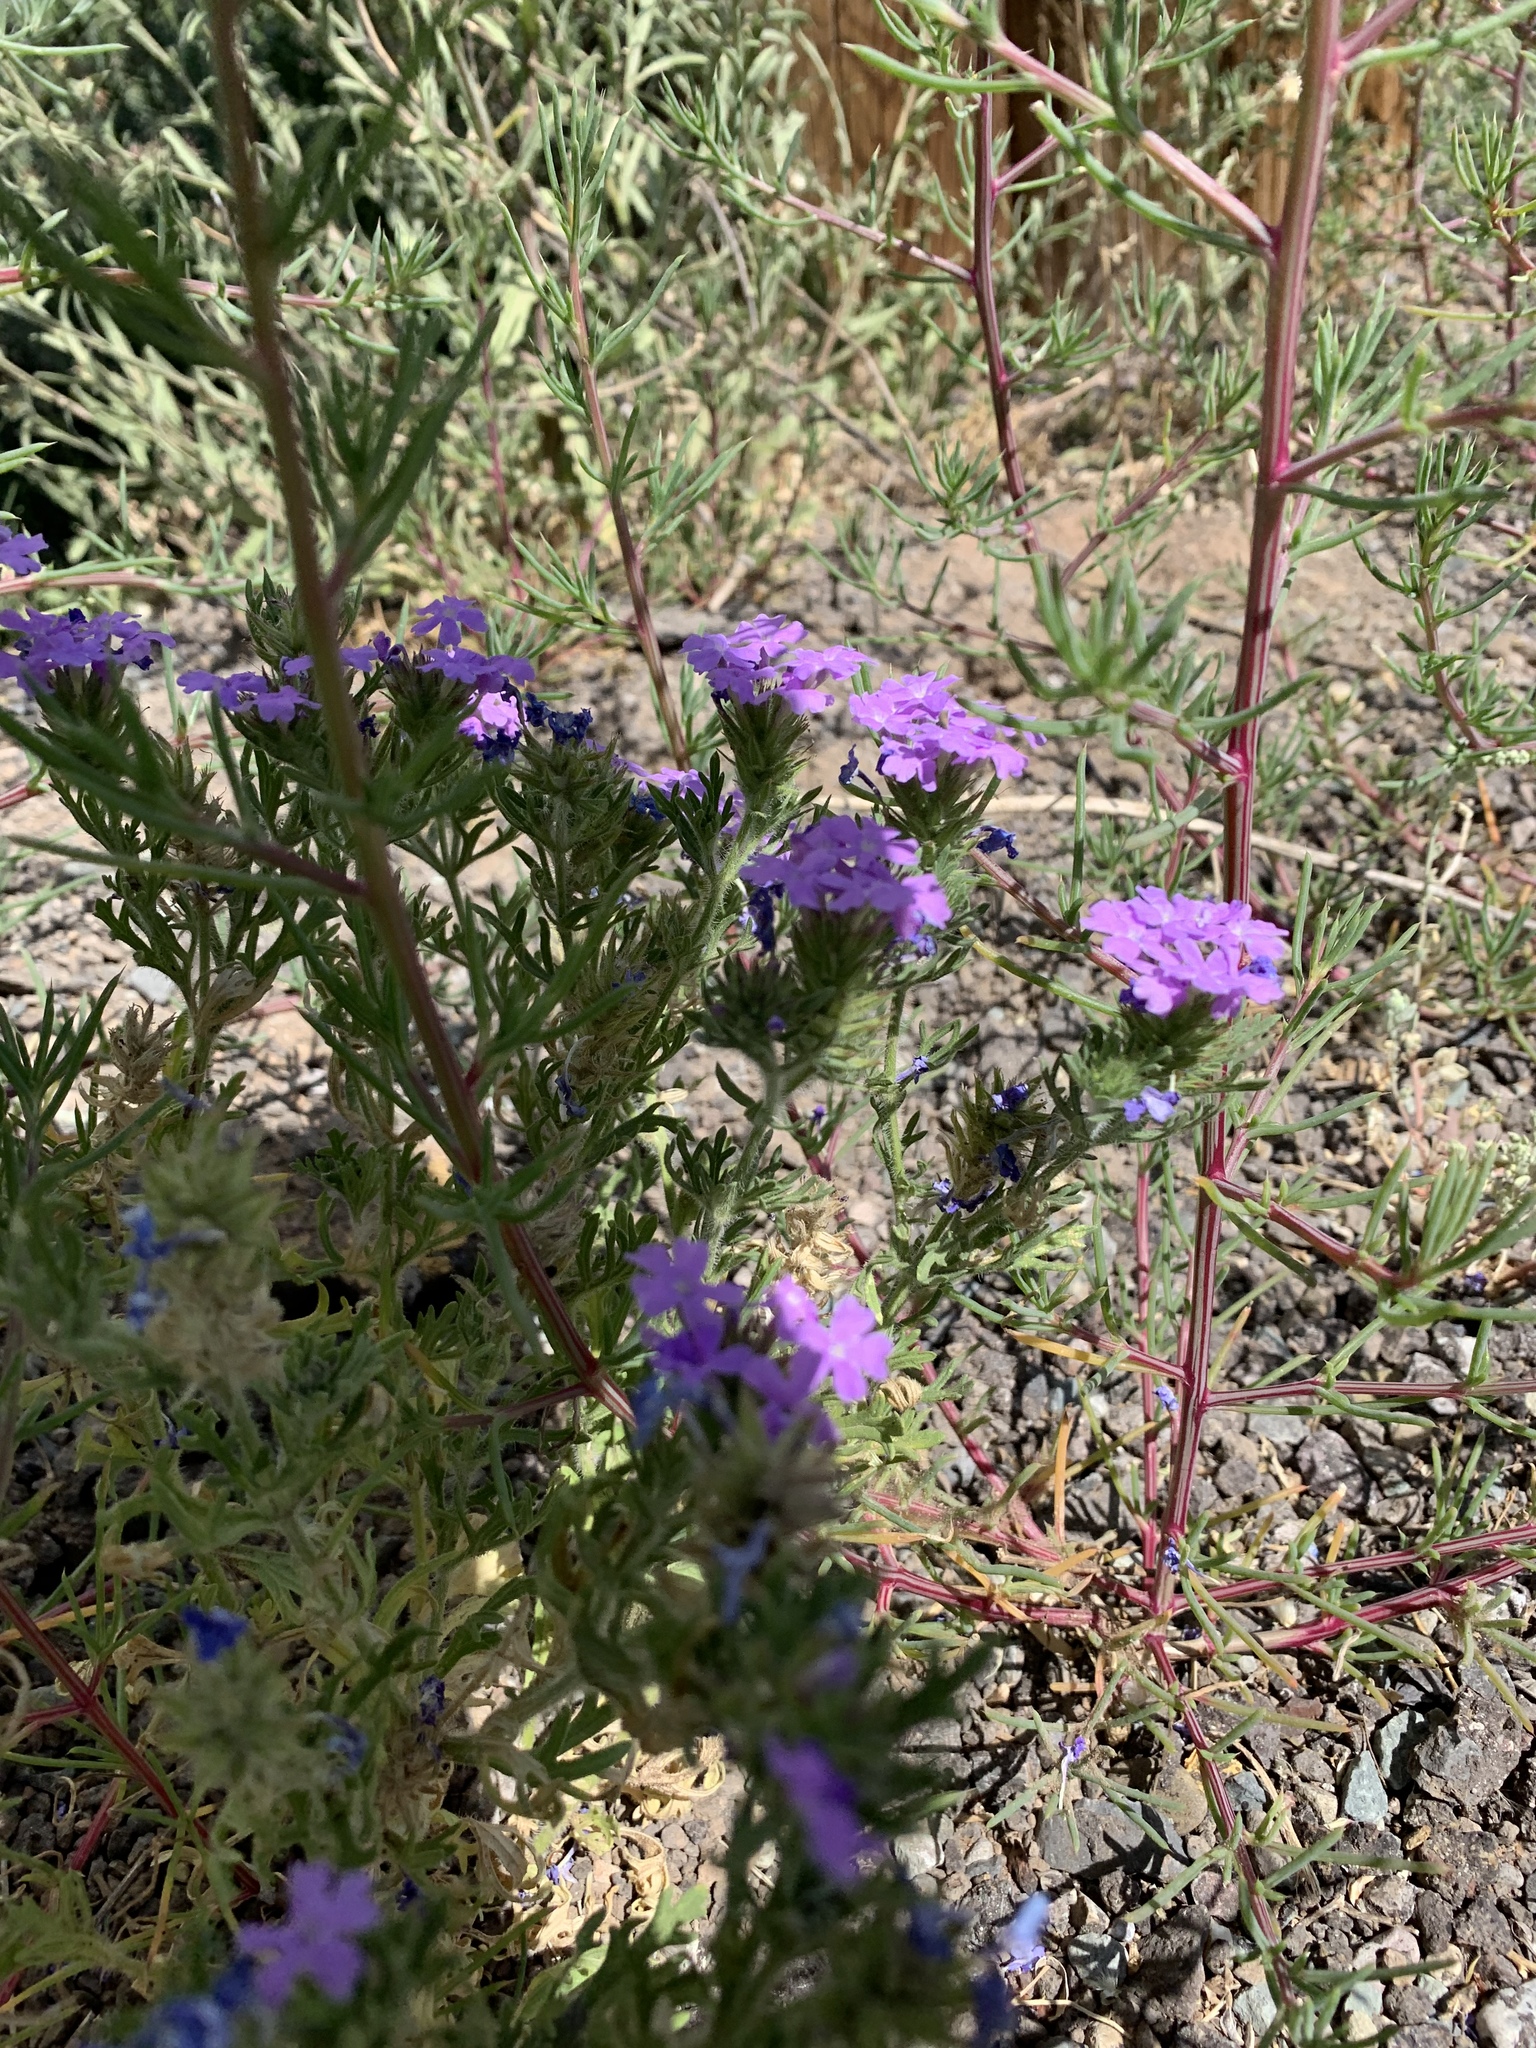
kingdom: Plantae
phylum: Tracheophyta
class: Magnoliopsida
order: Lamiales
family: Verbenaceae
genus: Verbena
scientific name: Verbena bipinnatifida
